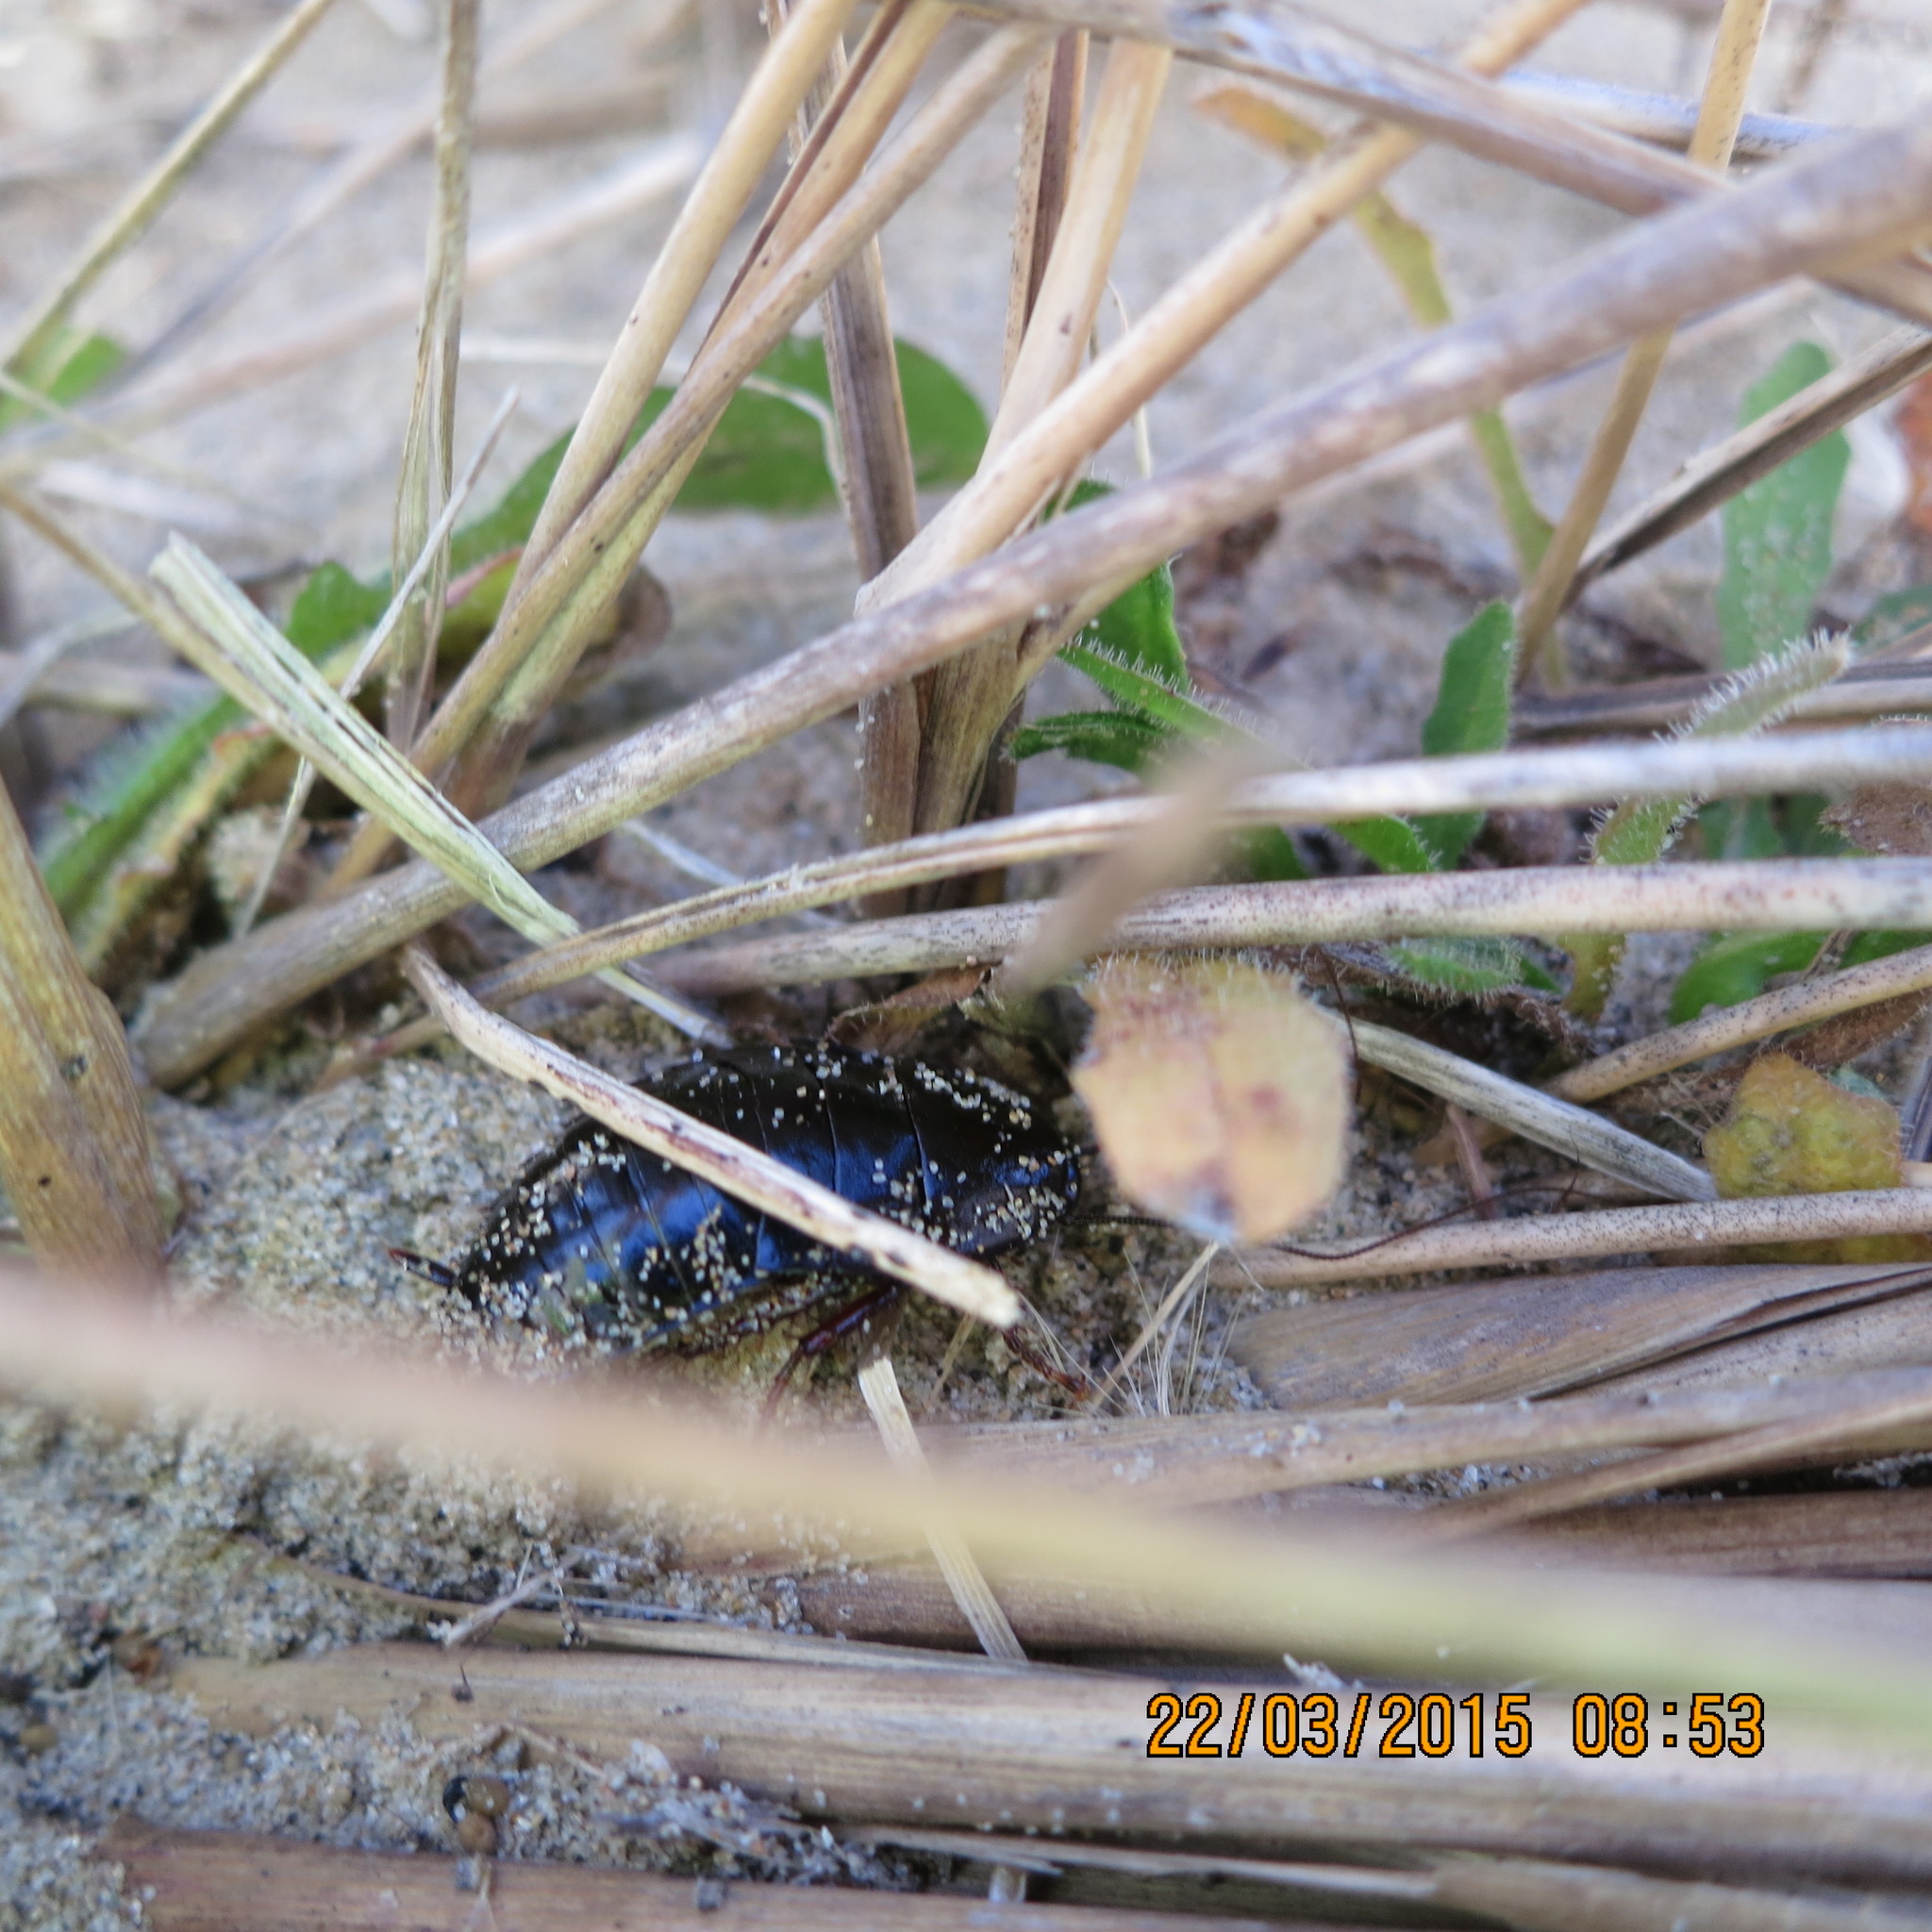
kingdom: Animalia
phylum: Arthropoda
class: Insecta
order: Blattodea
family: Blattidae
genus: Maoriblatta
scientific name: Maoriblatta novaeseelandiae
